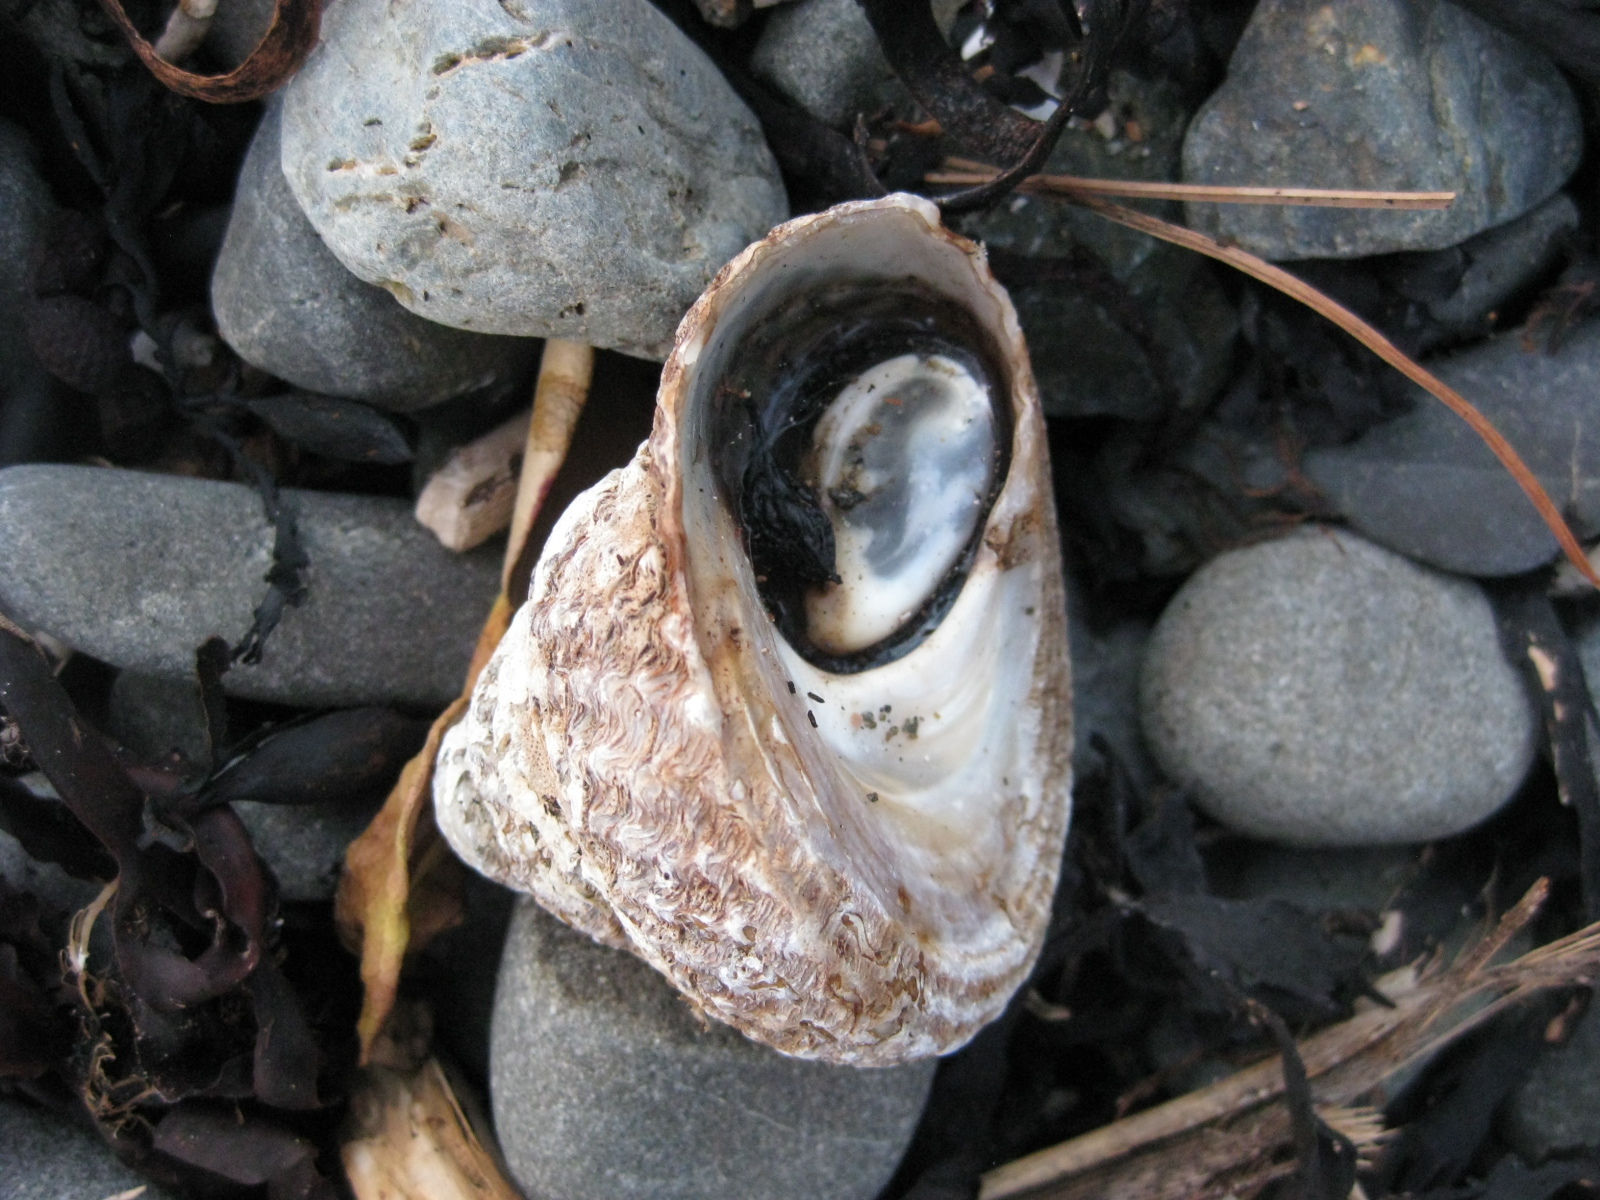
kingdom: Animalia
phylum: Mollusca
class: Gastropoda
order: Trochida
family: Turbinidae
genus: Cookia
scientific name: Cookia sulcata
